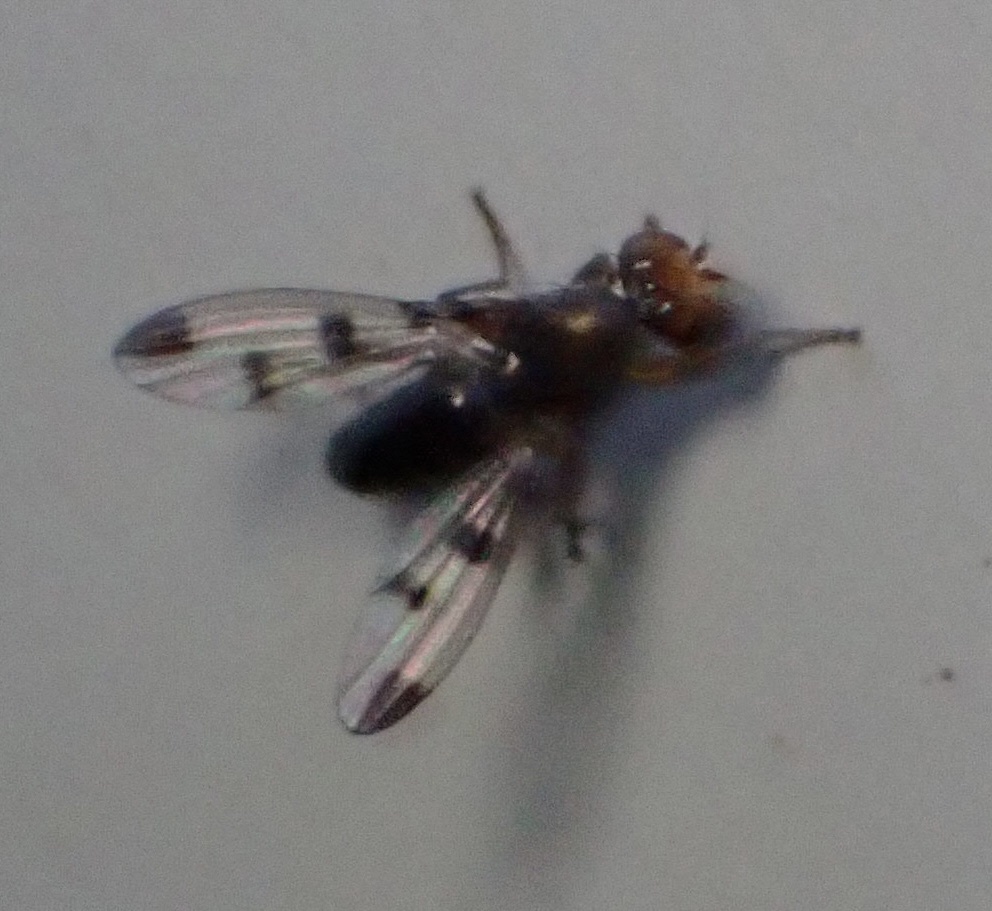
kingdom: Animalia
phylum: Arthropoda
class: Insecta
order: Diptera
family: Opomyzidae
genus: Geomyza
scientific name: Geomyza tripunctata
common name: Cereal fly
